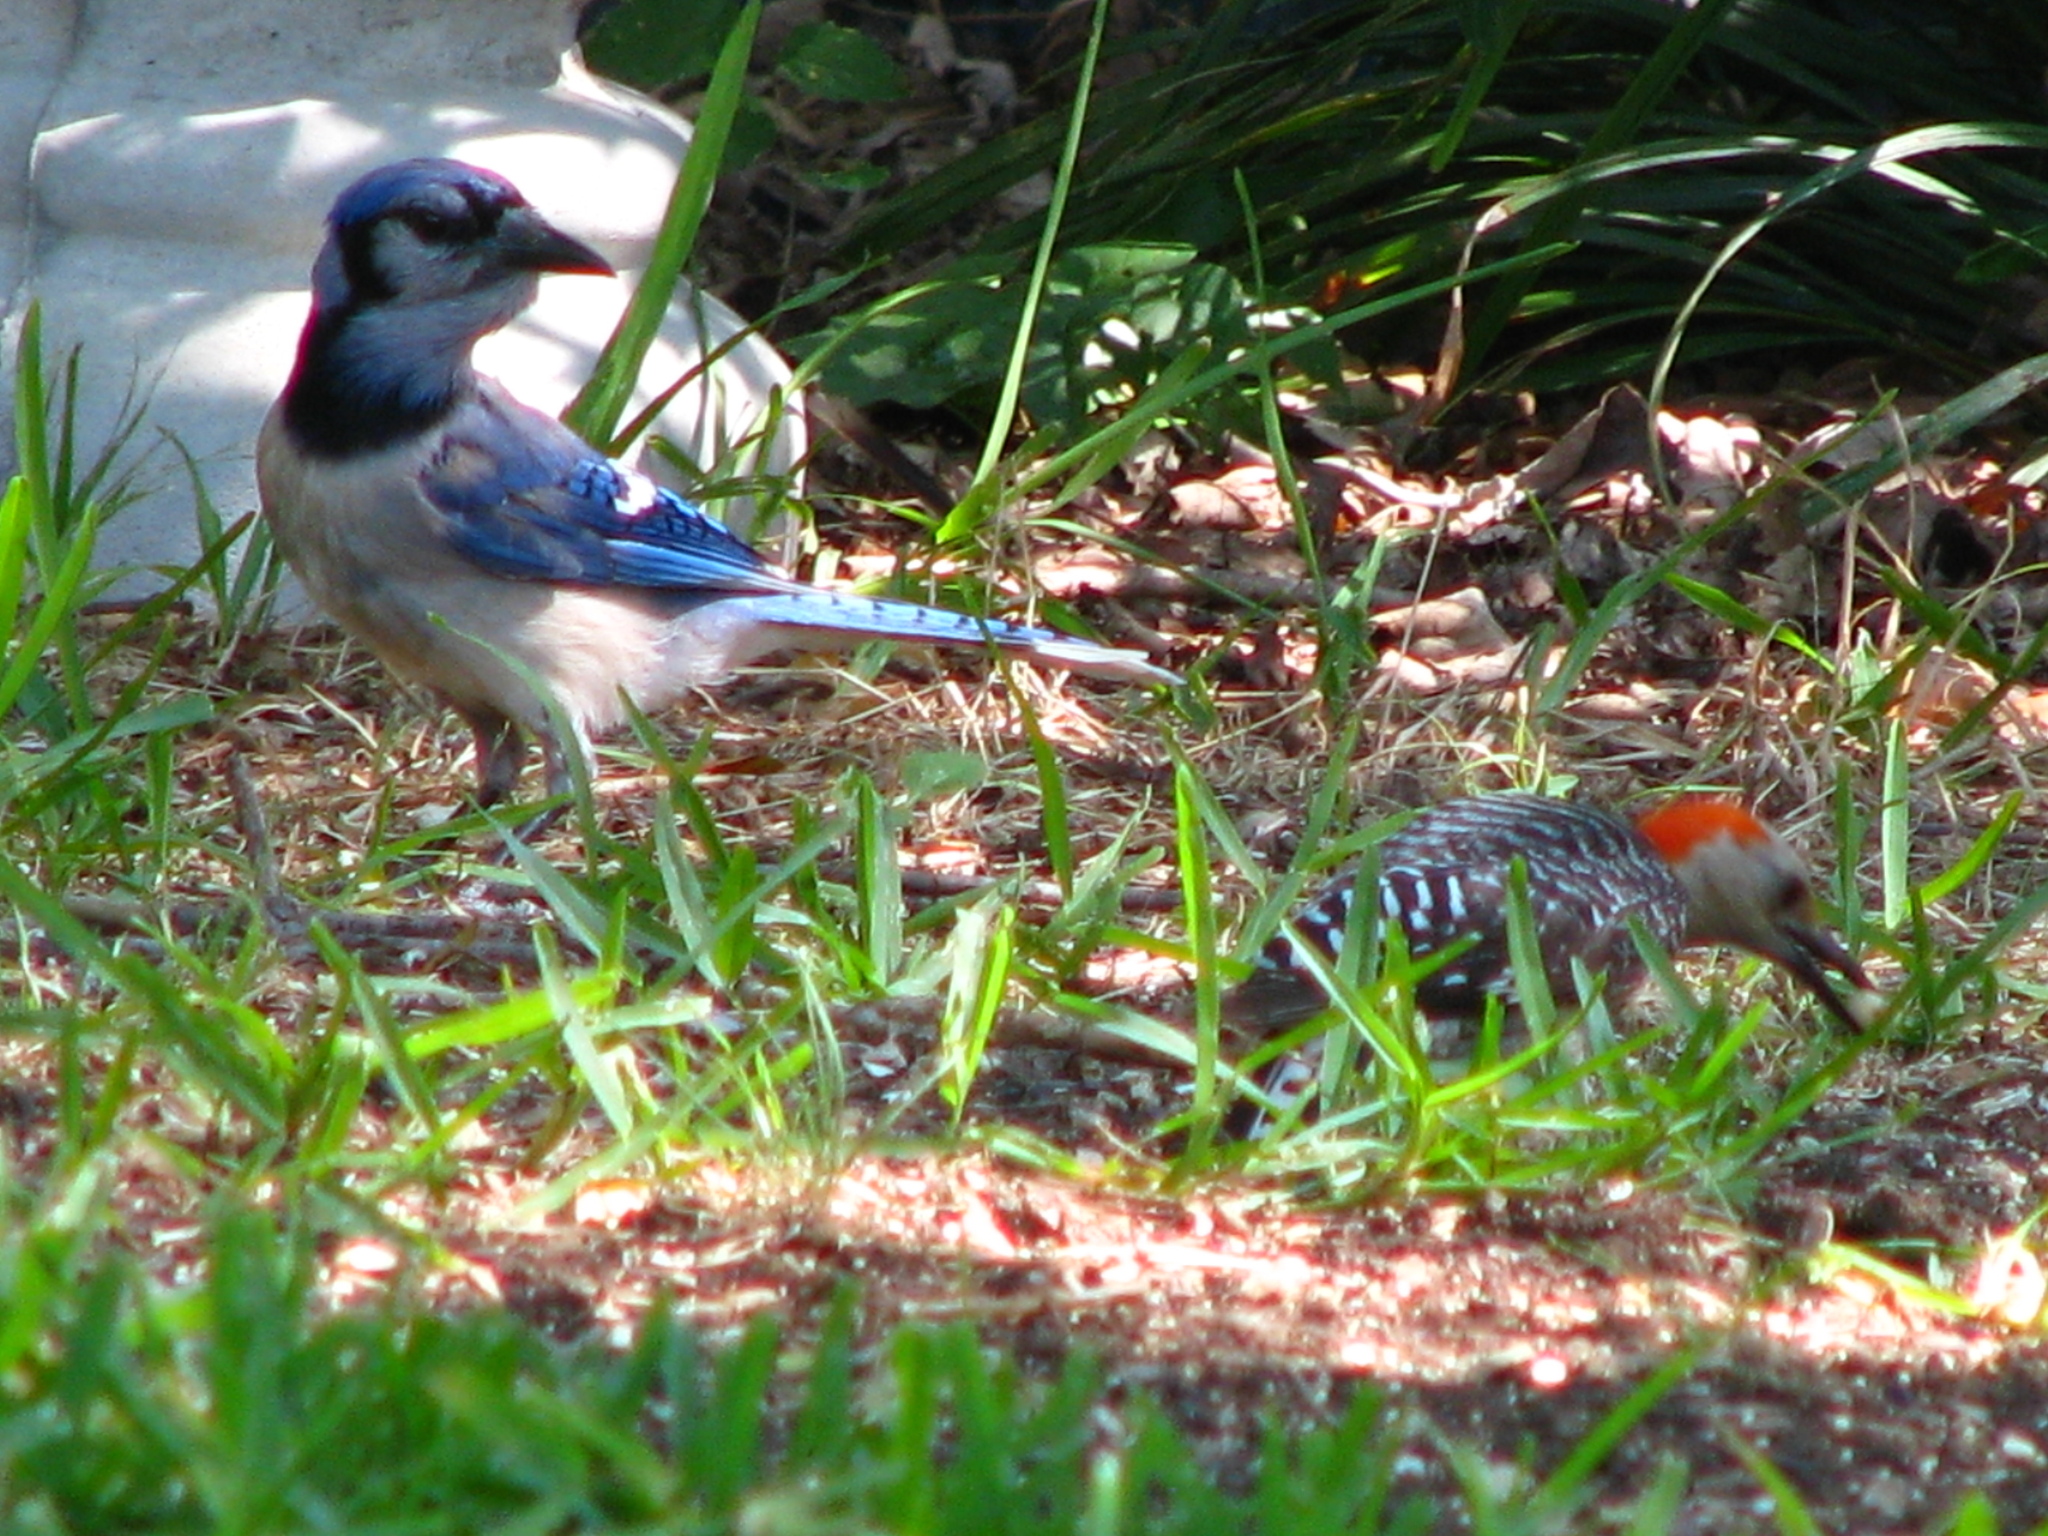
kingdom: Animalia
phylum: Chordata
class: Aves
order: Passeriformes
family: Corvidae
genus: Cyanocitta
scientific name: Cyanocitta cristata
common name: Blue jay
